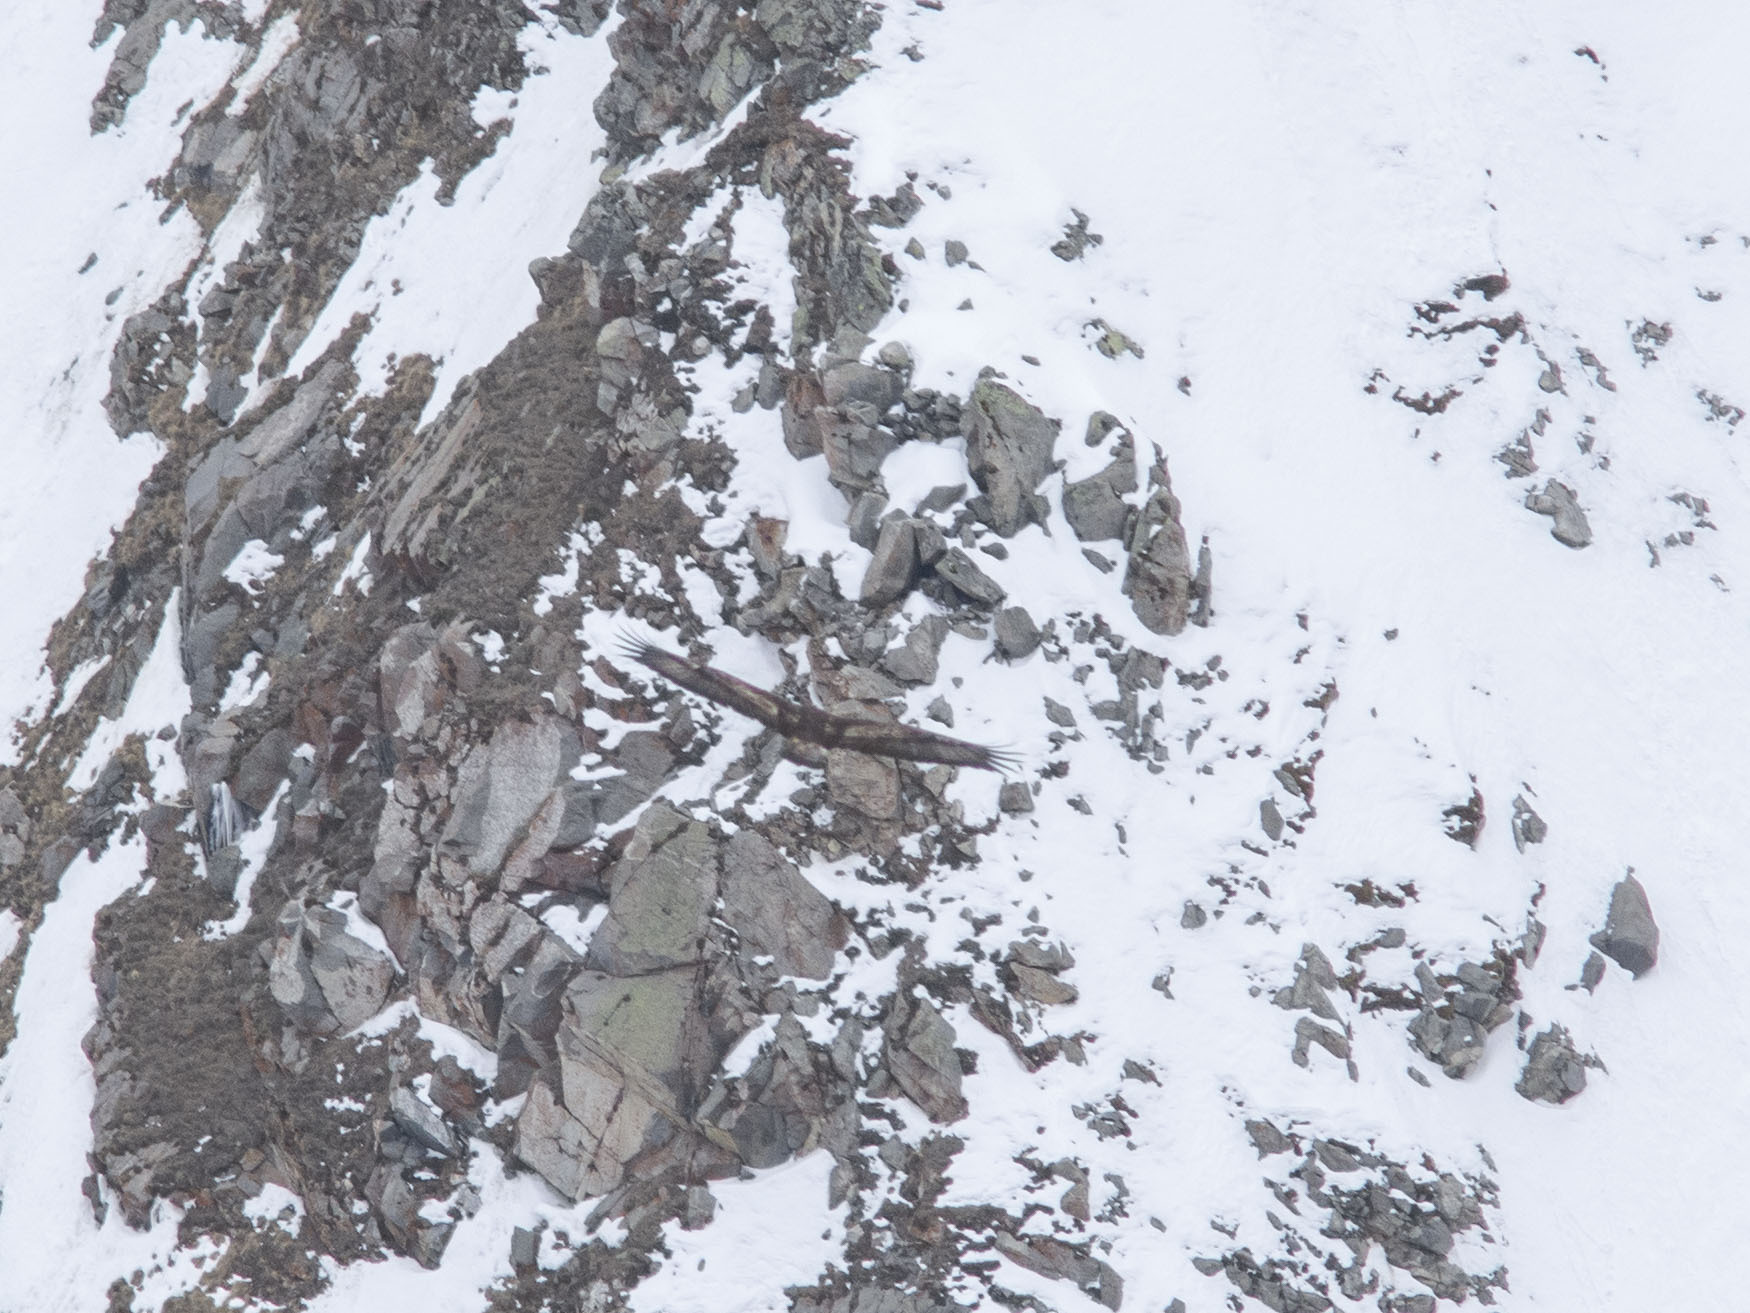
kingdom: Animalia
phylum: Chordata
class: Aves
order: Accipitriformes
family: Accipitridae
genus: Aquila
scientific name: Aquila chrysaetos
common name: Golden eagle
